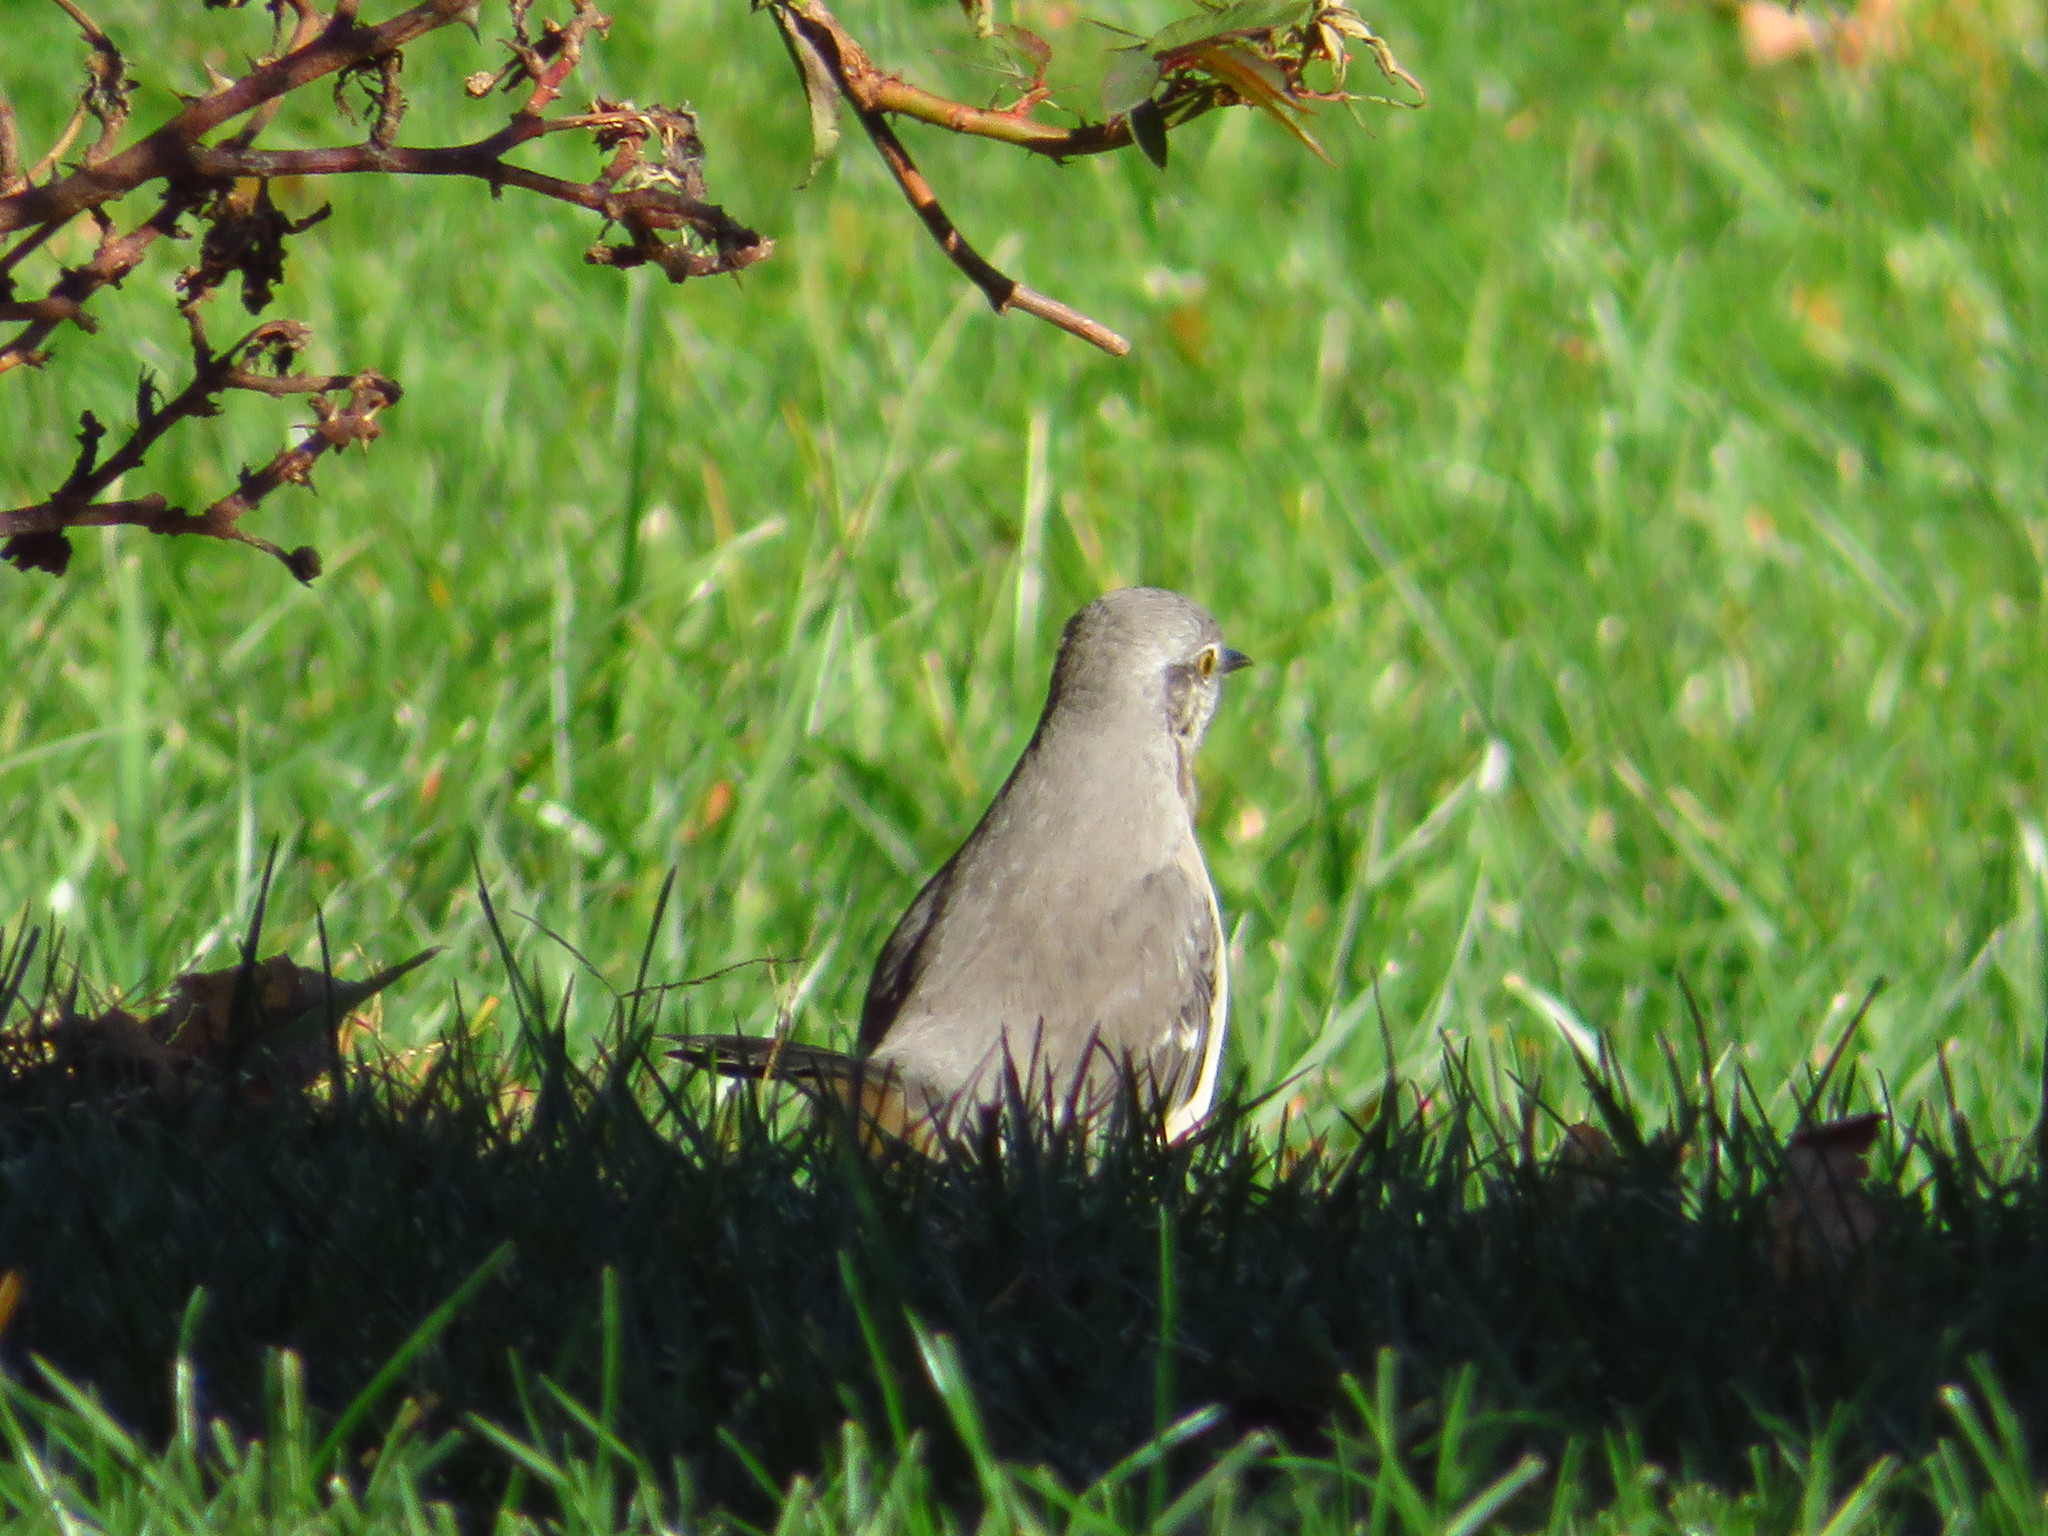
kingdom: Animalia
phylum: Chordata
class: Aves
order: Passeriformes
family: Mimidae
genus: Mimus
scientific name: Mimus polyglottos
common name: Northern mockingbird
